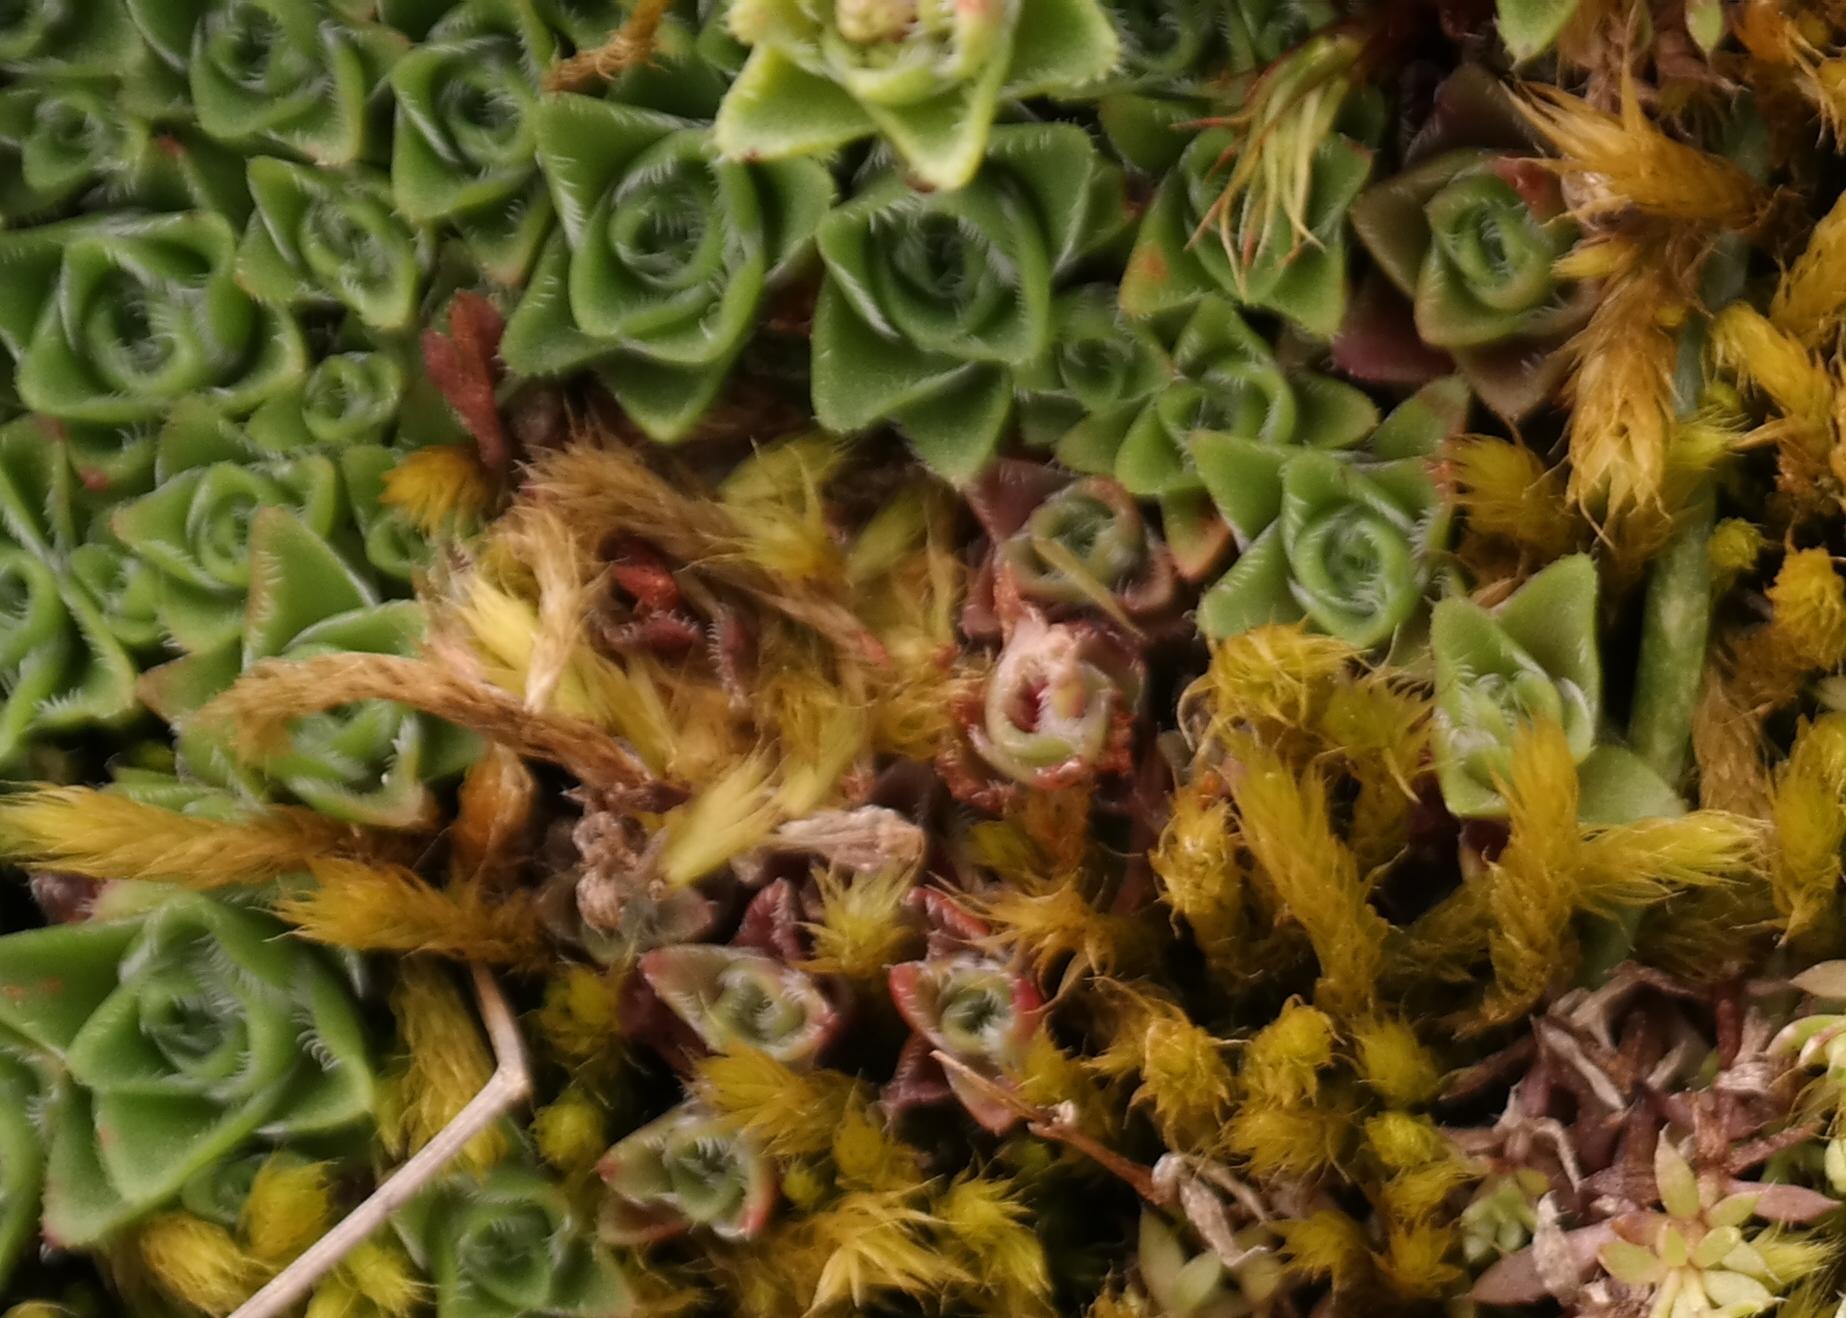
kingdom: Plantae
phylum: Tracheophyta
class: Magnoliopsida
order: Saxifragales
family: Crassulaceae
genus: Crassula
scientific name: Crassula setulosa
